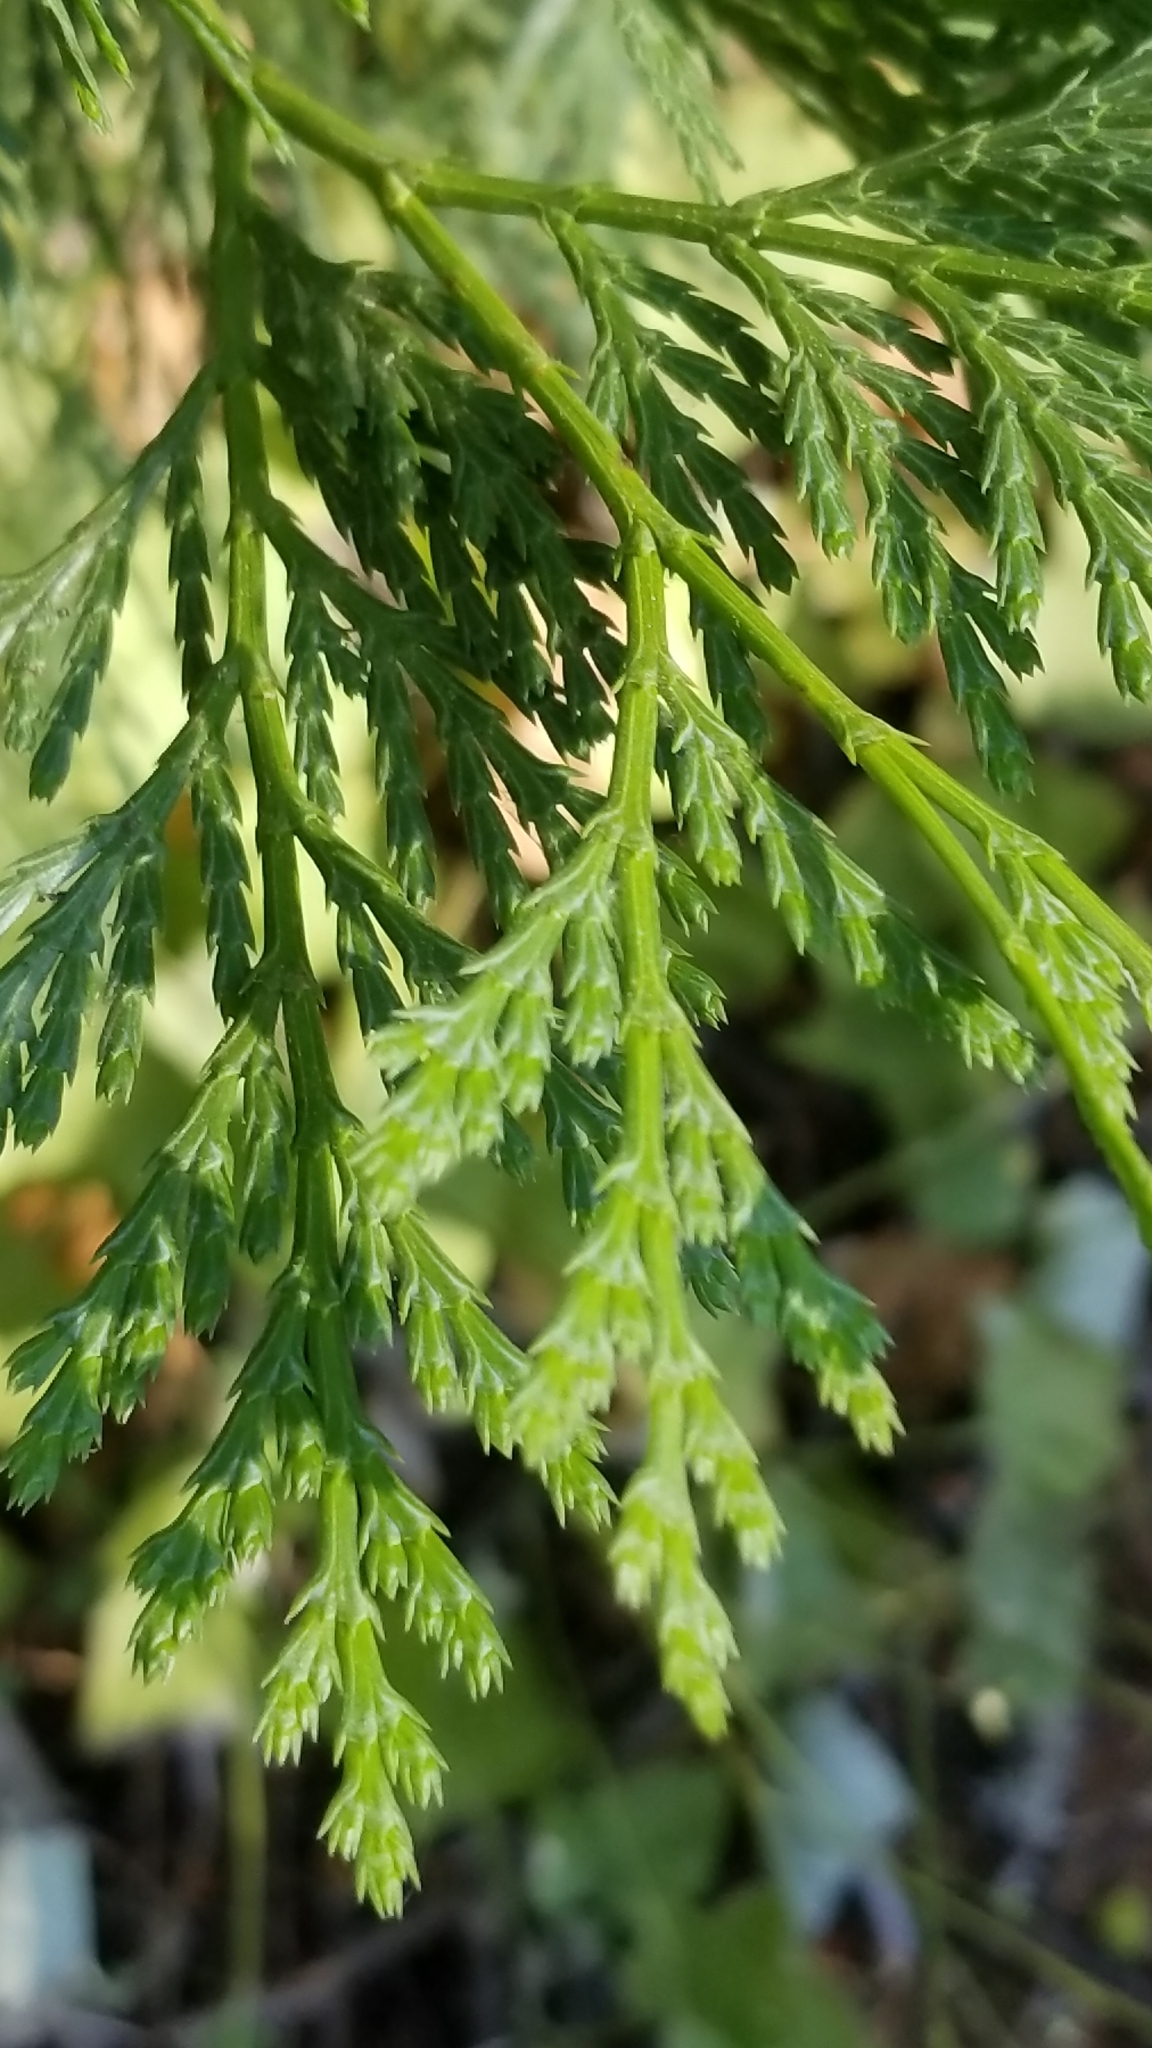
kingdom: Plantae
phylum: Tracheophyta
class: Pinopsida
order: Pinales
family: Cupressaceae
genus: Calocedrus
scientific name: Calocedrus decurrens
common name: Californian incense-cedar
